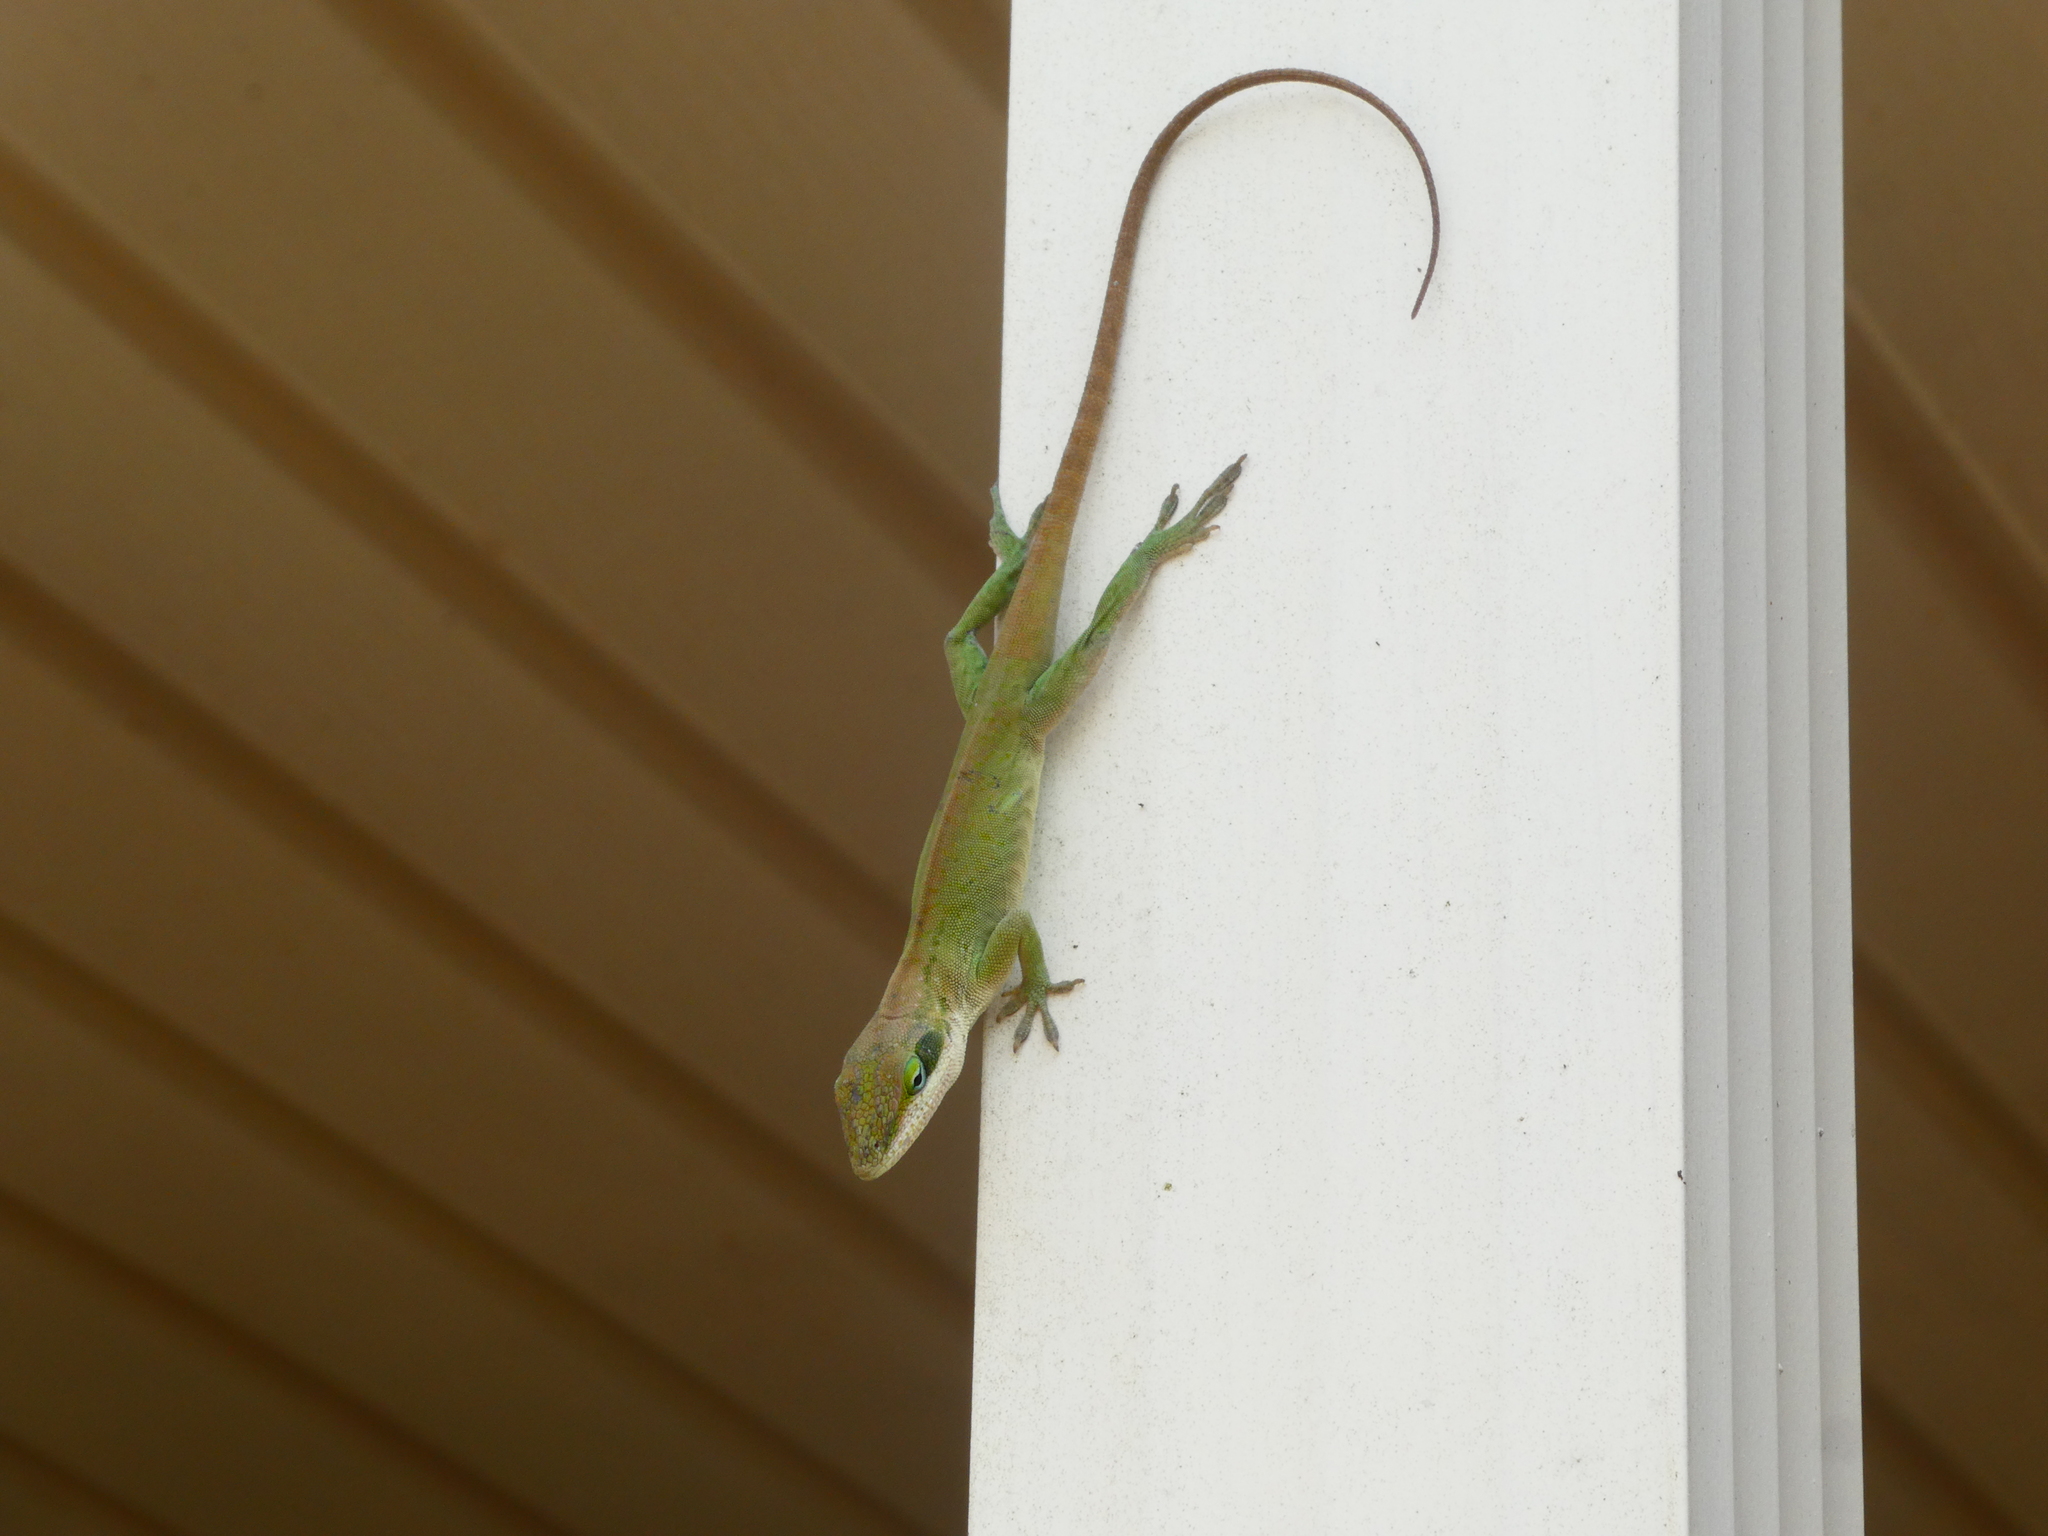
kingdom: Animalia
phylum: Chordata
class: Squamata
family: Dactyloidae
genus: Anolis
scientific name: Anolis carolinensis
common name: Green anole
